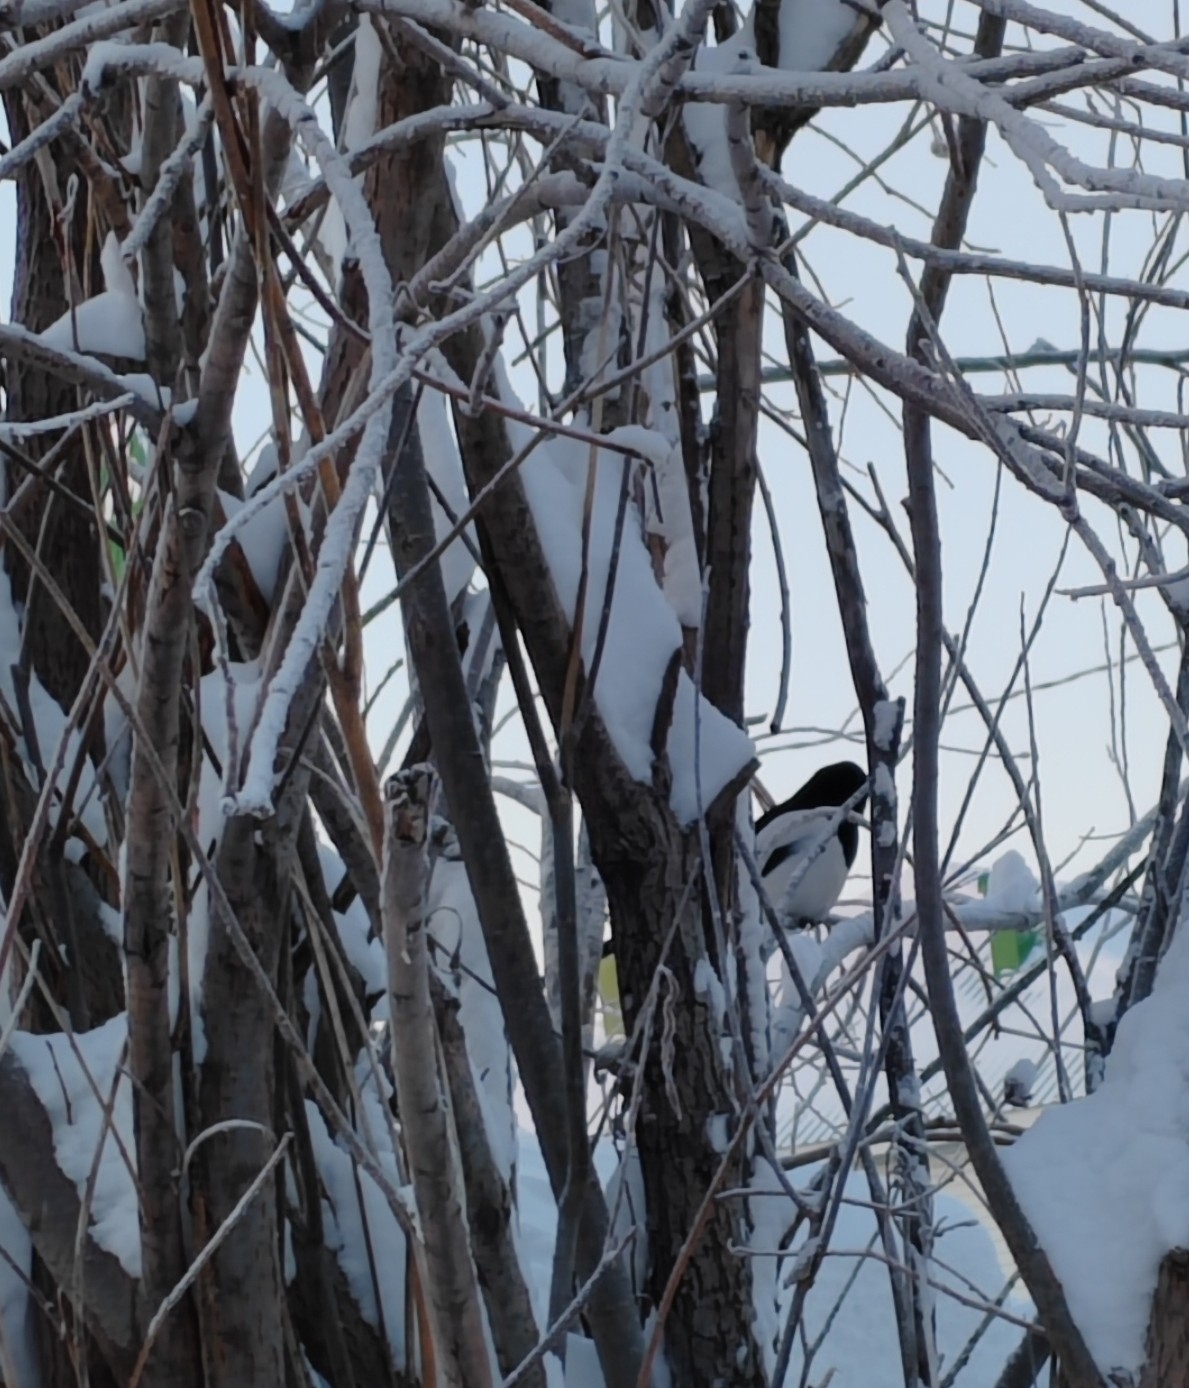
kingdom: Animalia
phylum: Chordata
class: Aves
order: Passeriformes
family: Corvidae
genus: Pica
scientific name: Pica pica
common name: Eurasian magpie
